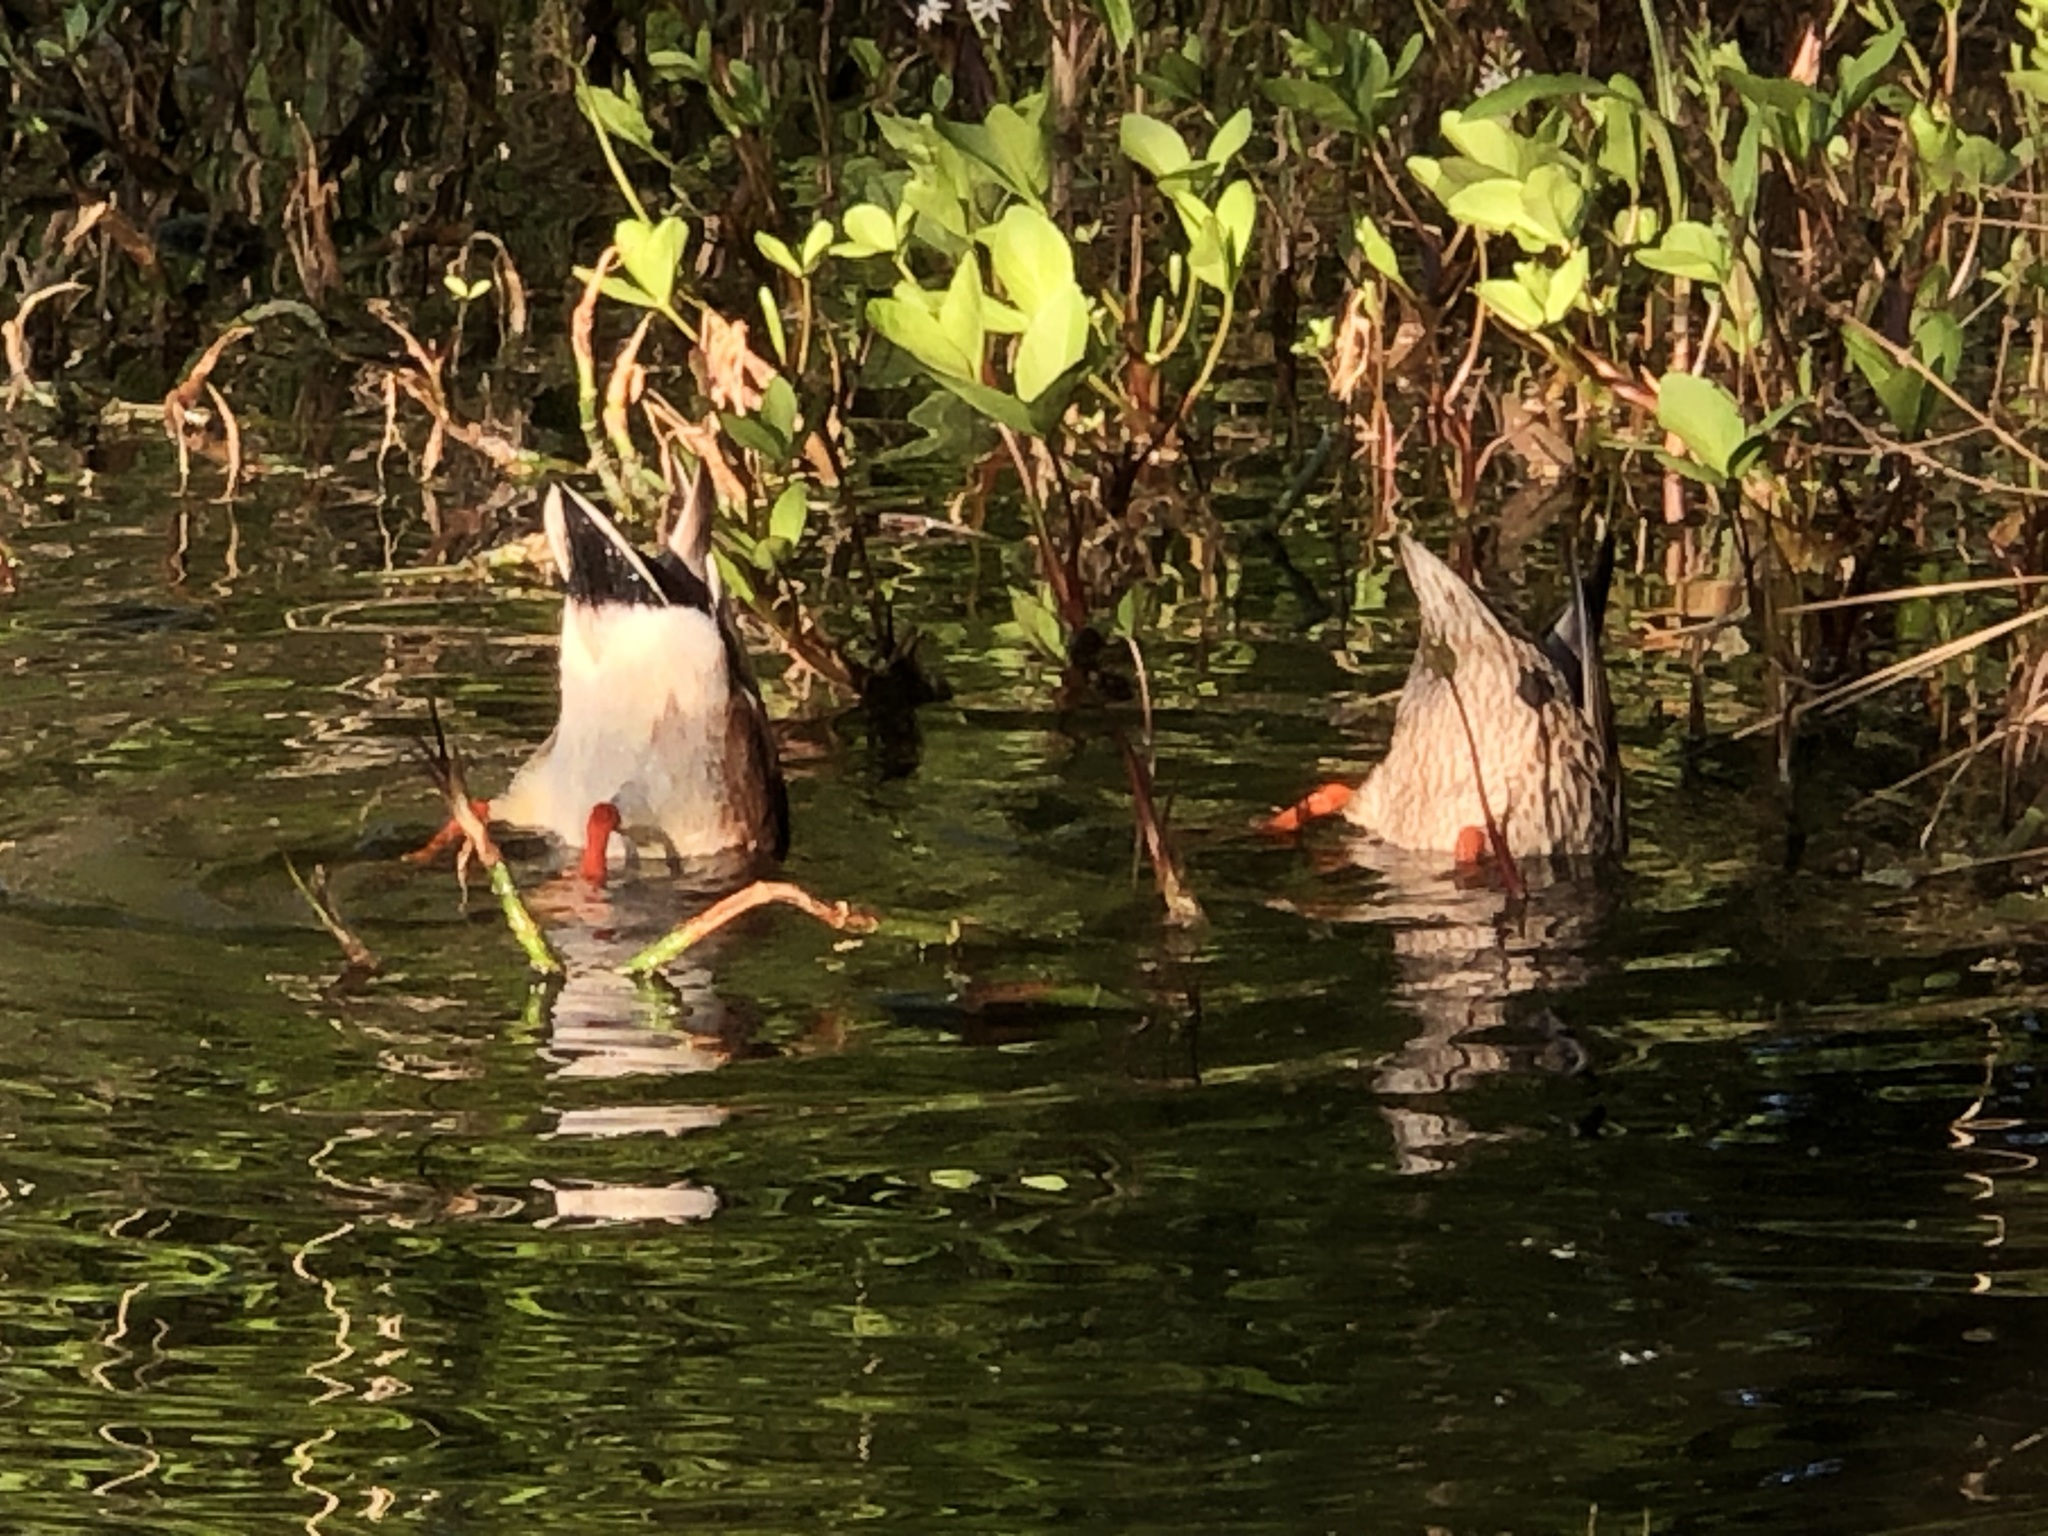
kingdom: Animalia
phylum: Chordata
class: Aves
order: Anseriformes
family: Anatidae
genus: Anas
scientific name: Anas platyrhynchos
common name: Mallard
